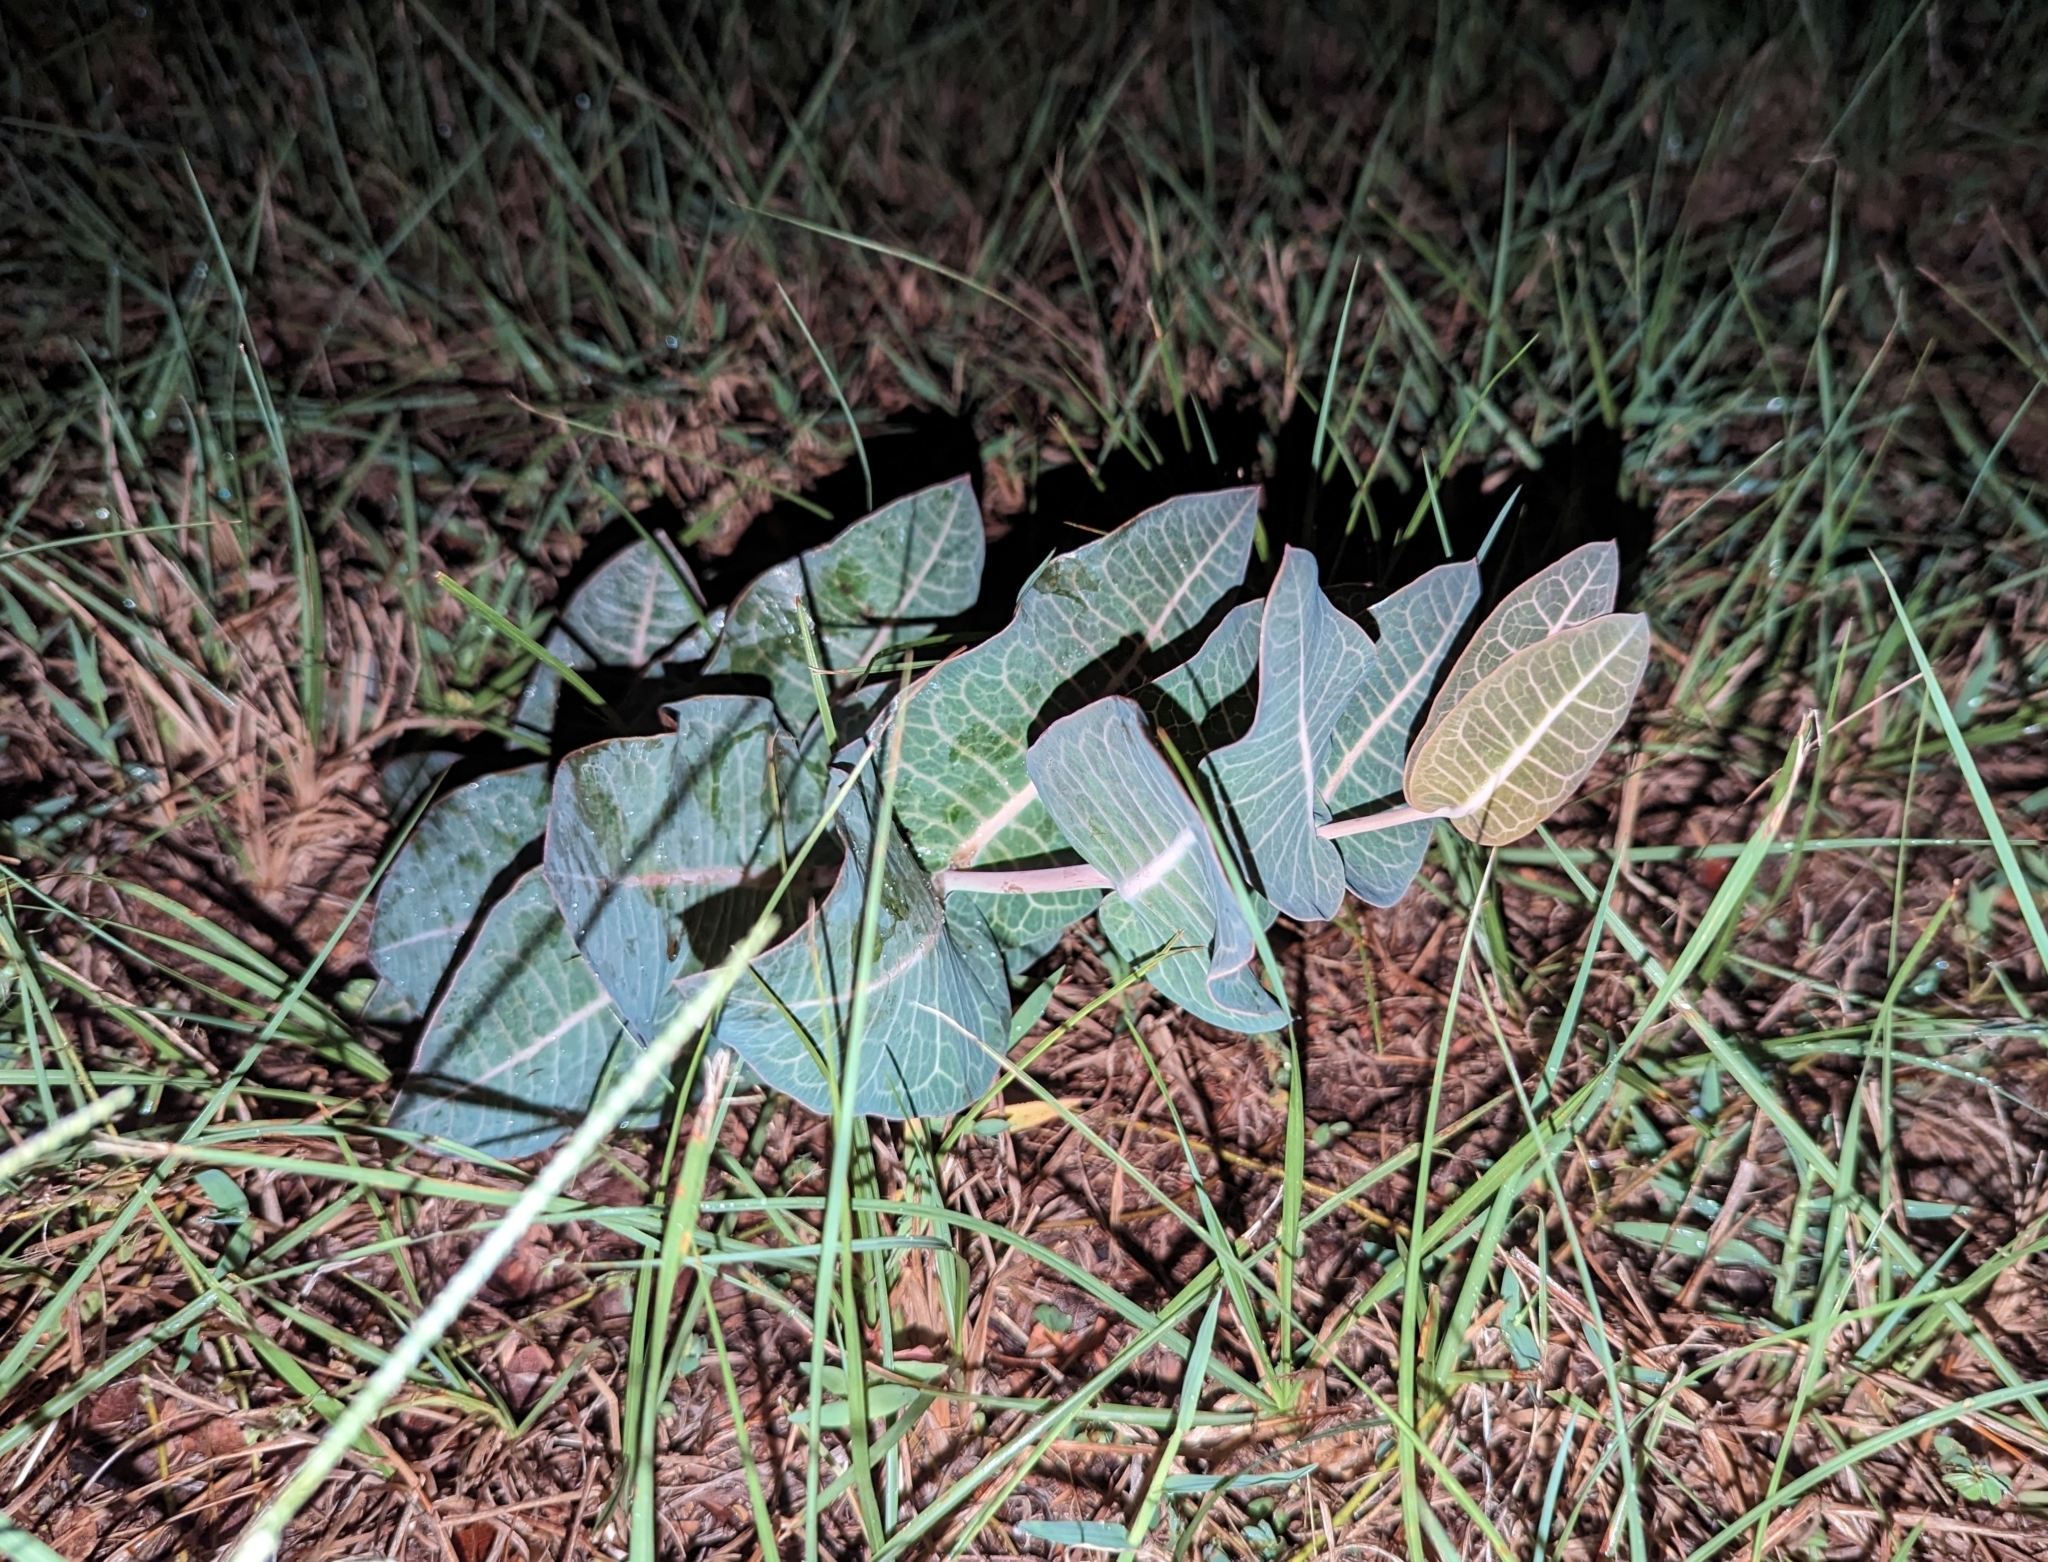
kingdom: Plantae
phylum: Tracheophyta
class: Magnoliopsida
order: Gentianales
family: Apocynaceae
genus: Asclepias
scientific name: Asclepias humistrata
